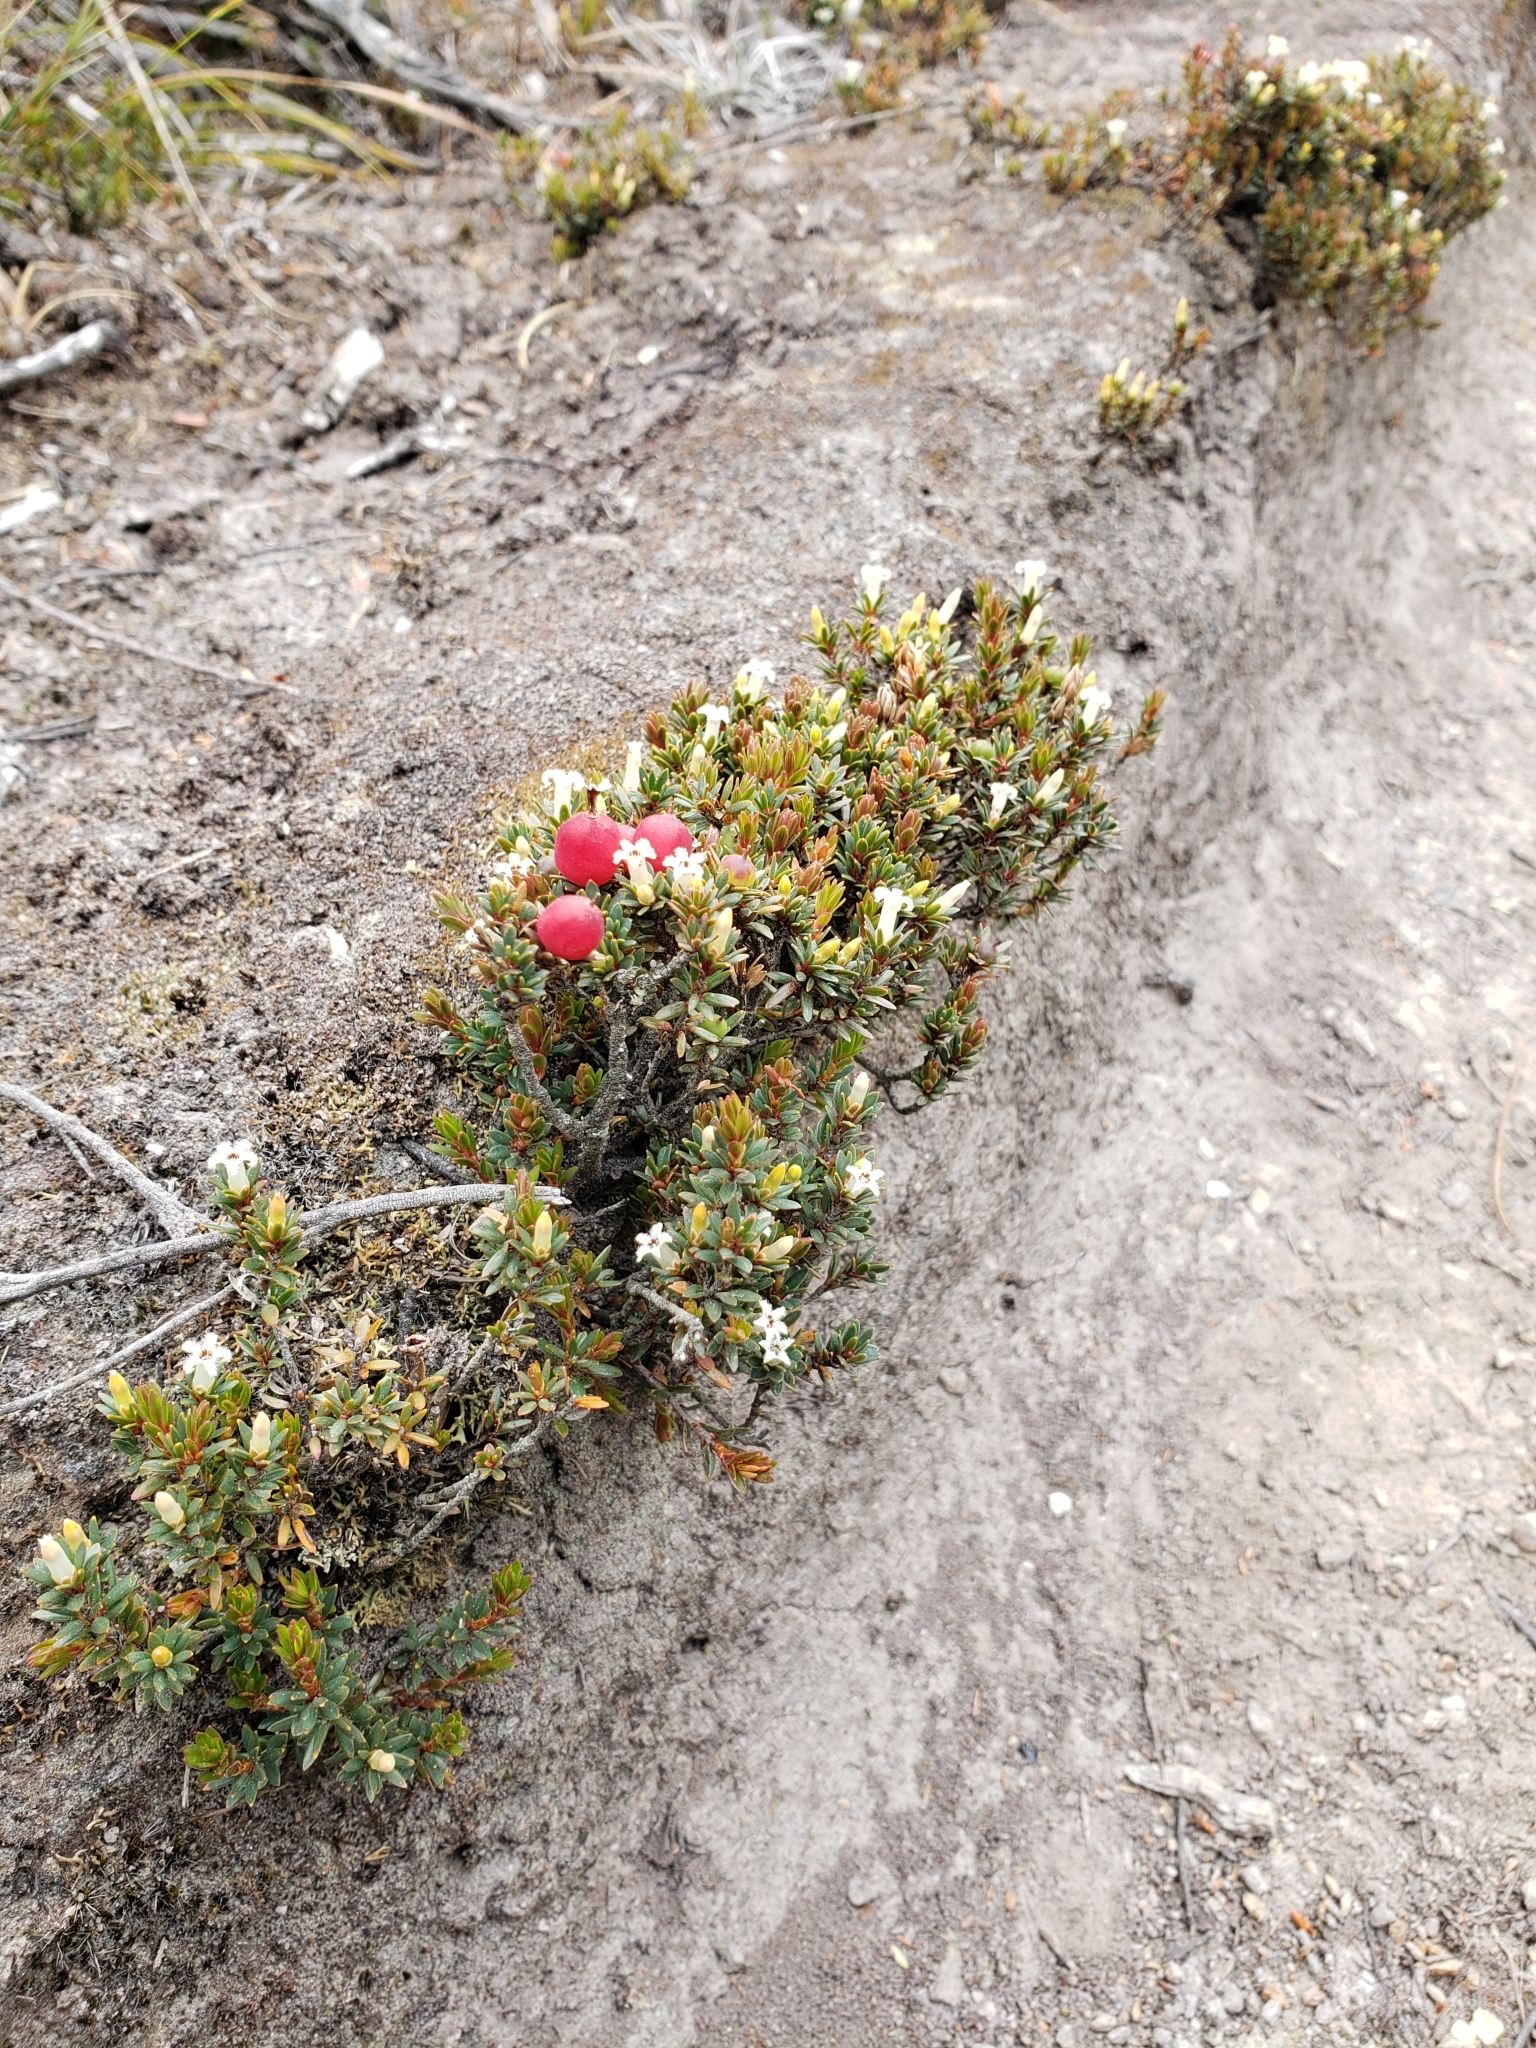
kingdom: Plantae
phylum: Tracheophyta
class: Magnoliopsida
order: Ericales
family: Ericaceae
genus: Pentachondra
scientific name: Pentachondra pumila
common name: Carpet-heath
